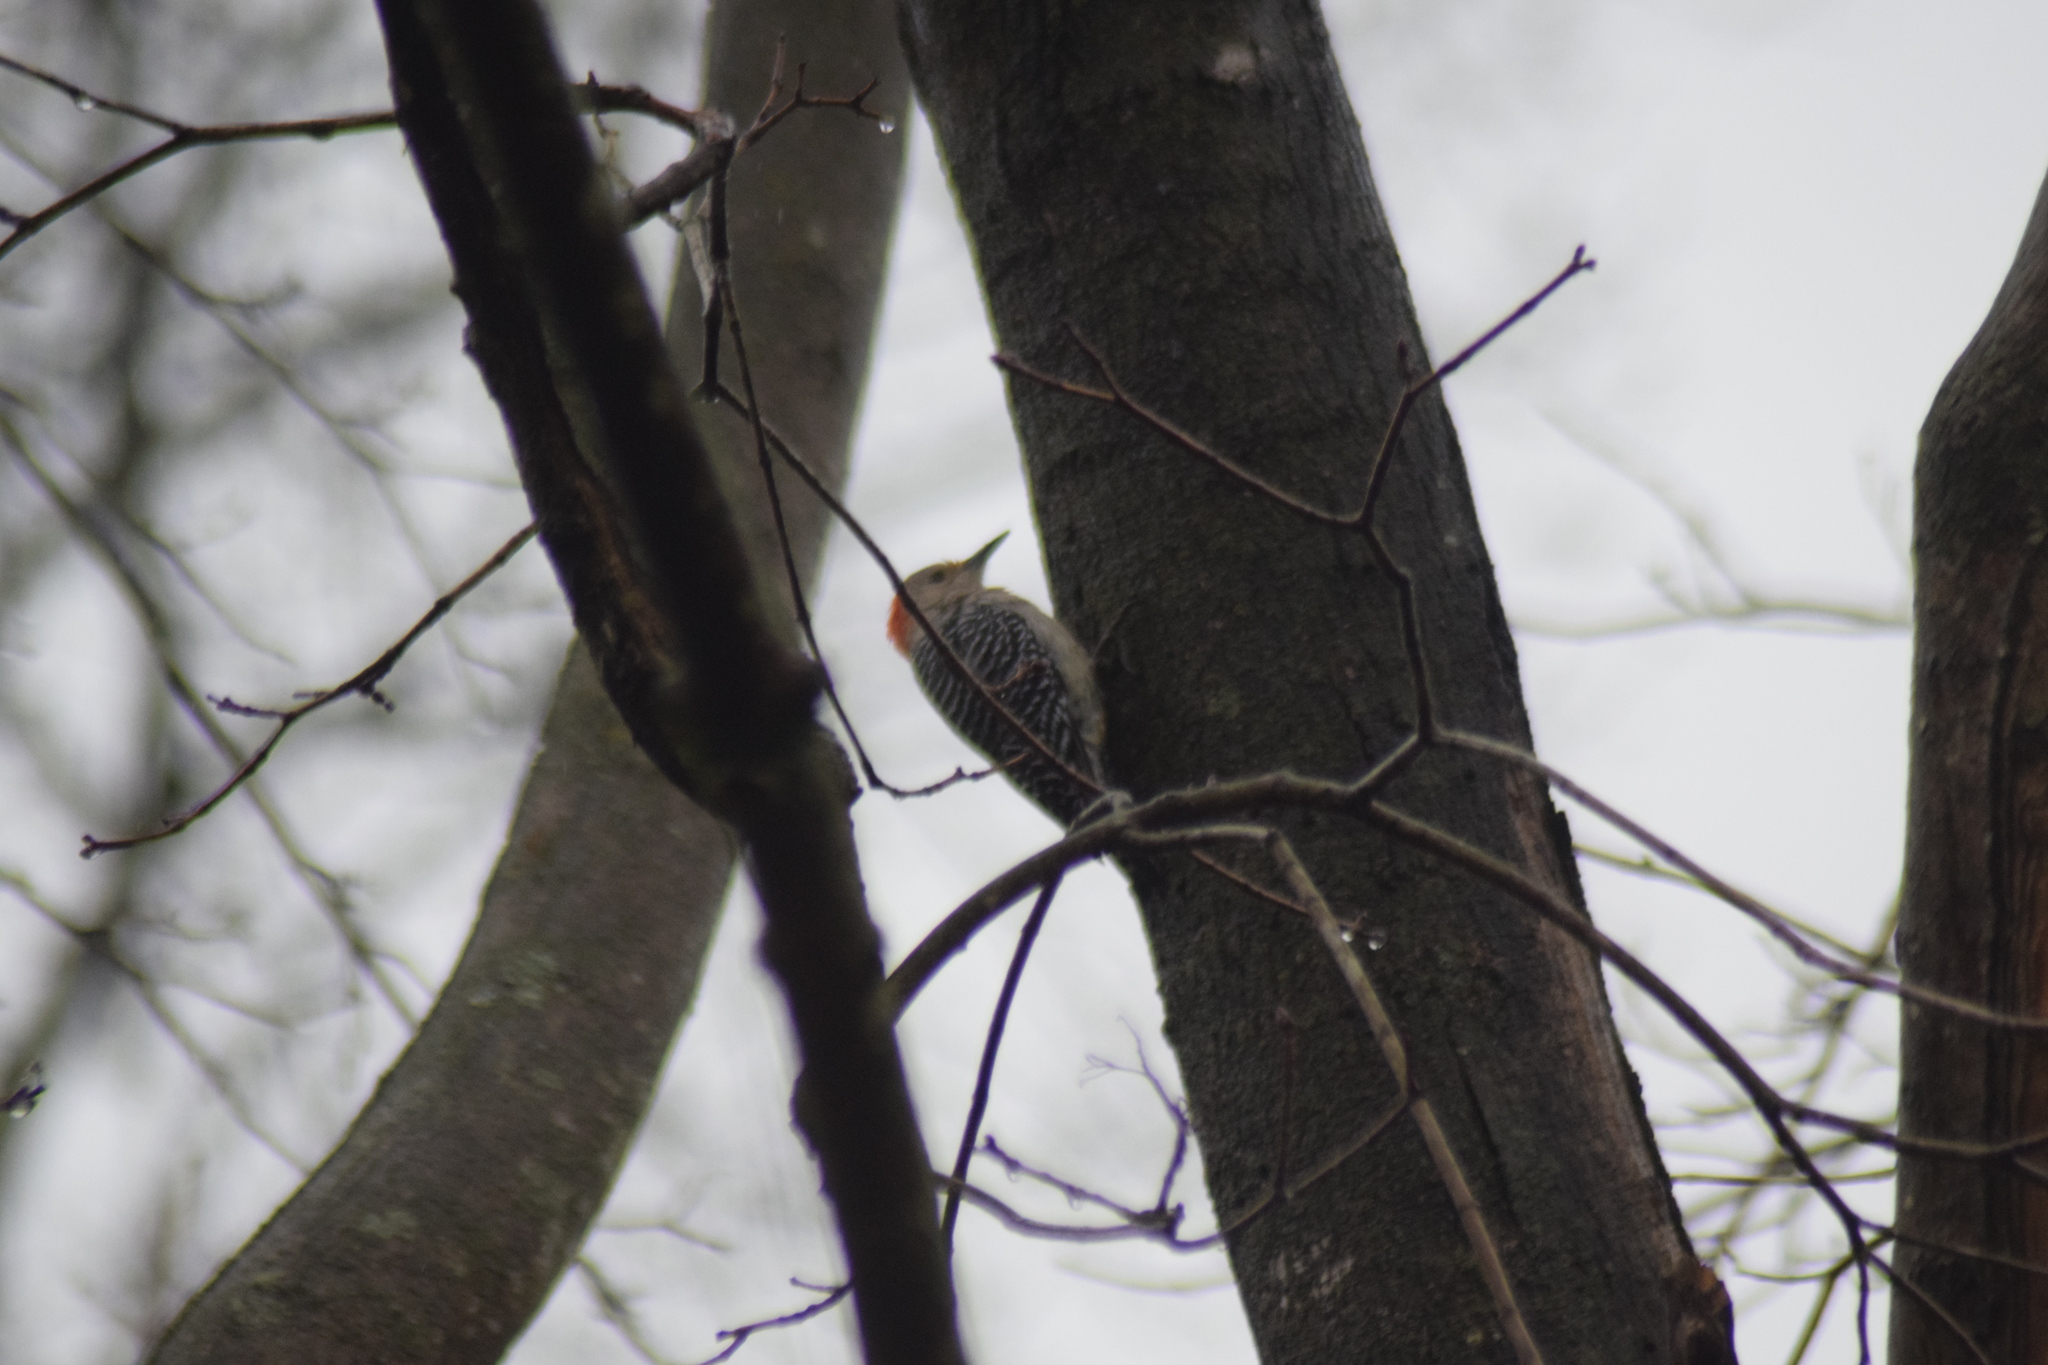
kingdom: Animalia
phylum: Chordata
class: Aves
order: Piciformes
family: Picidae
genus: Melanerpes
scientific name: Melanerpes carolinus
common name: Red-bellied woodpecker
